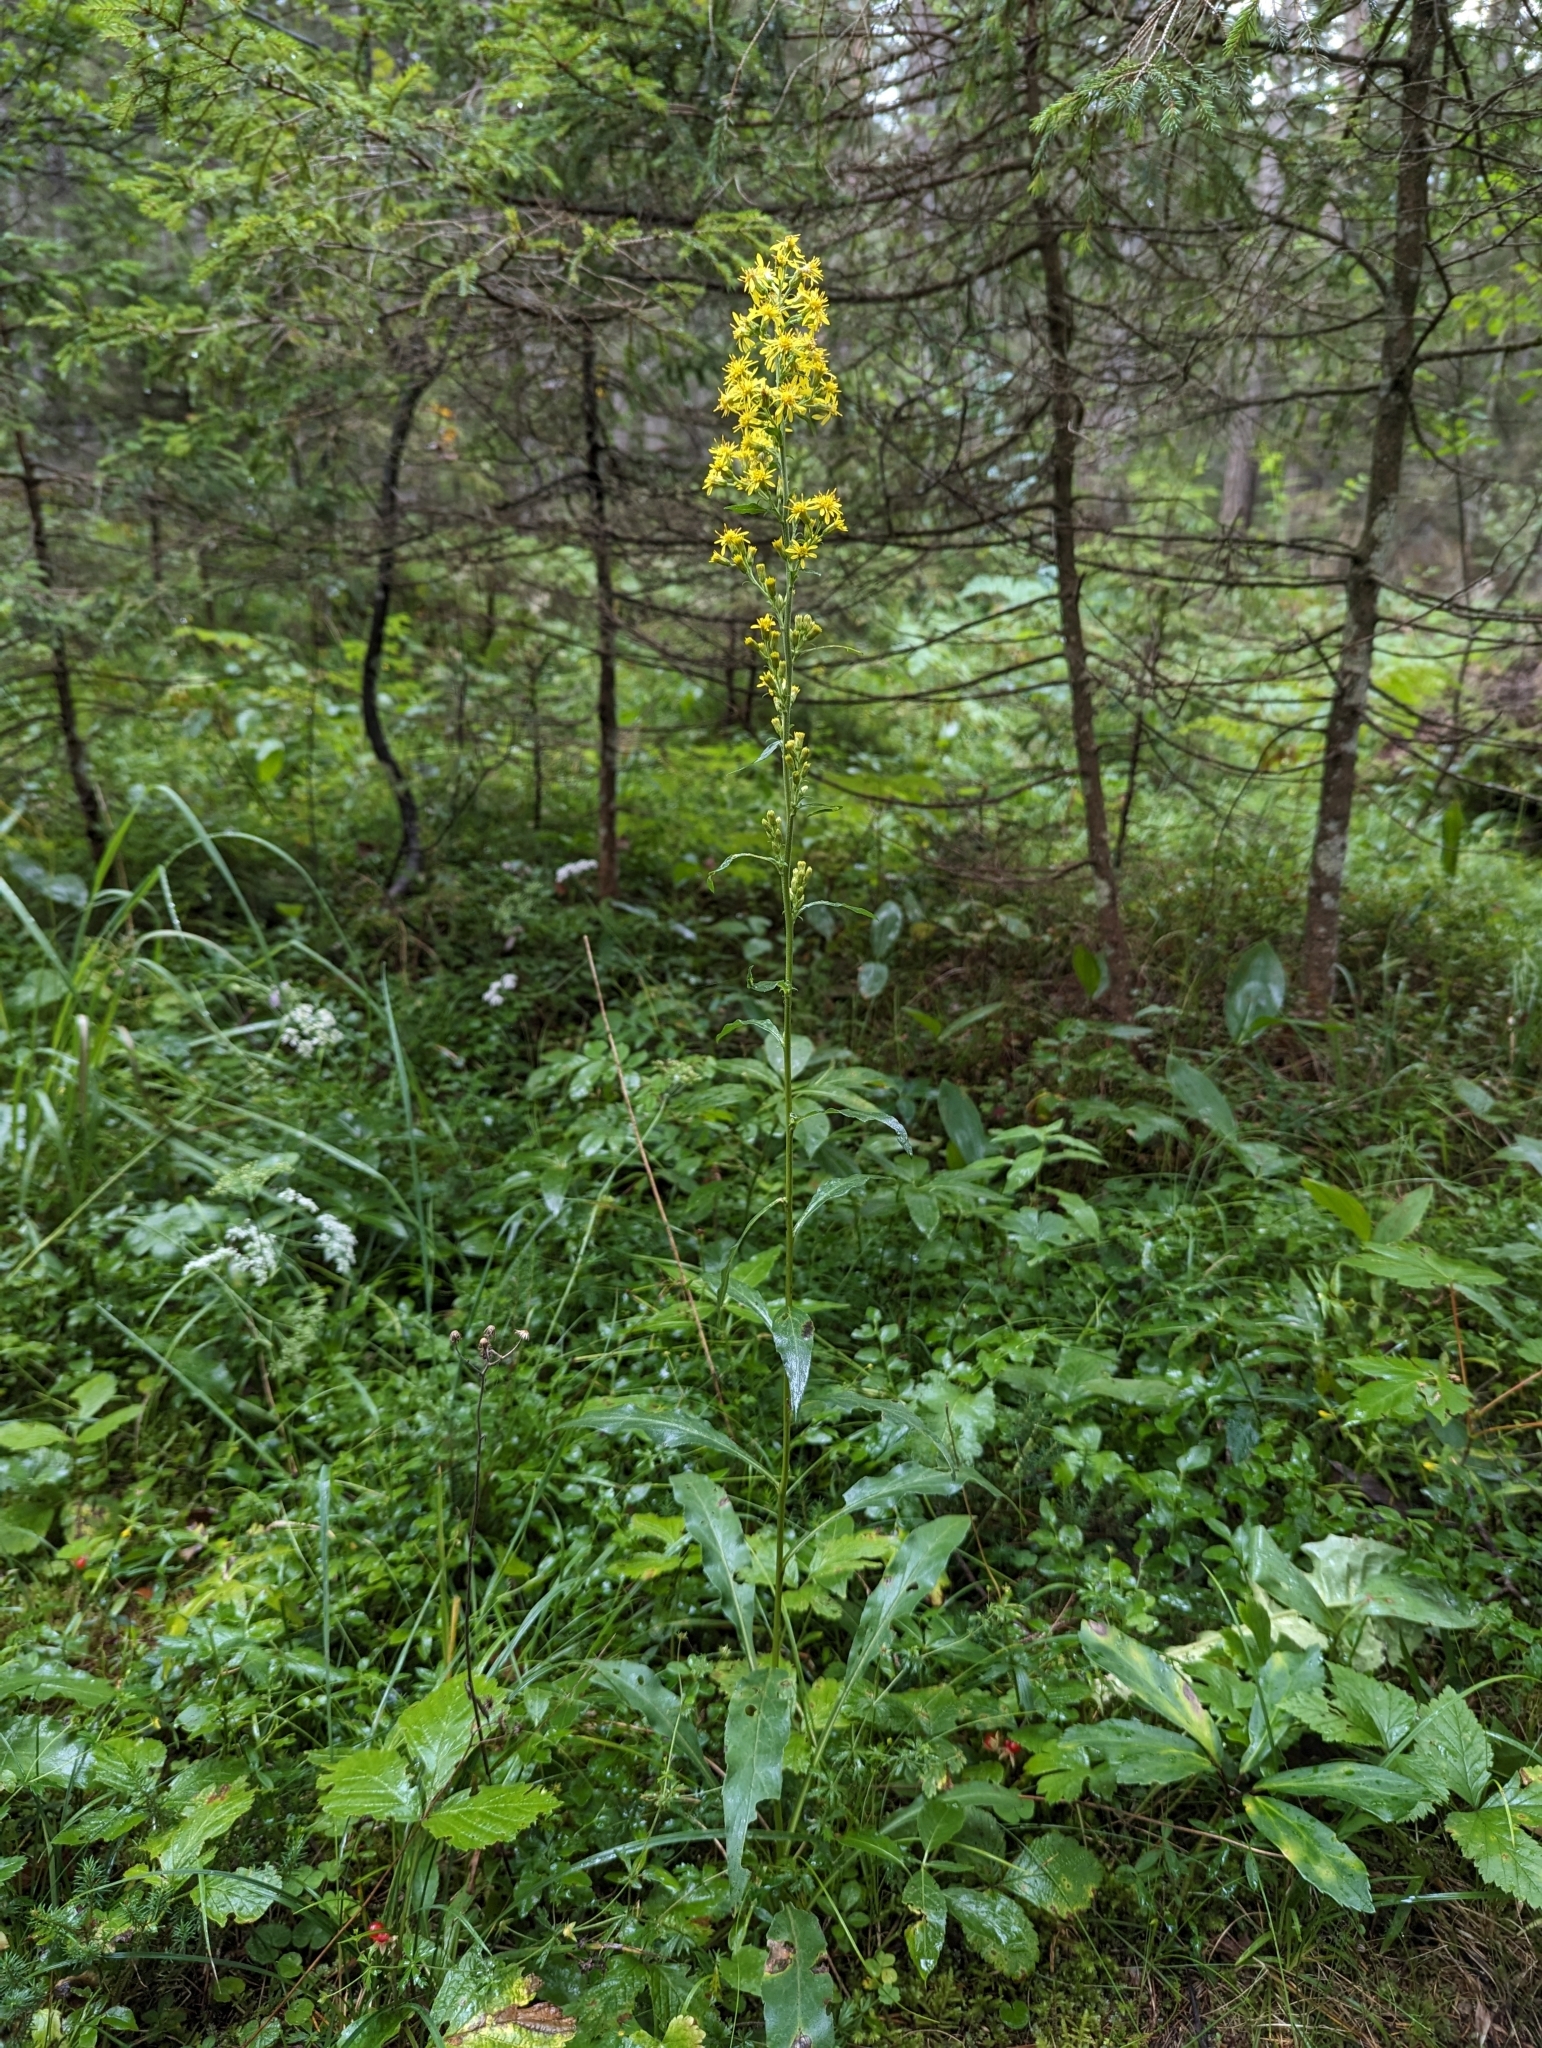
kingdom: Plantae
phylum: Tracheophyta
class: Magnoliopsida
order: Asterales
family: Asteraceae
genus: Solidago
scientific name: Solidago virgaurea
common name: Goldenrod
